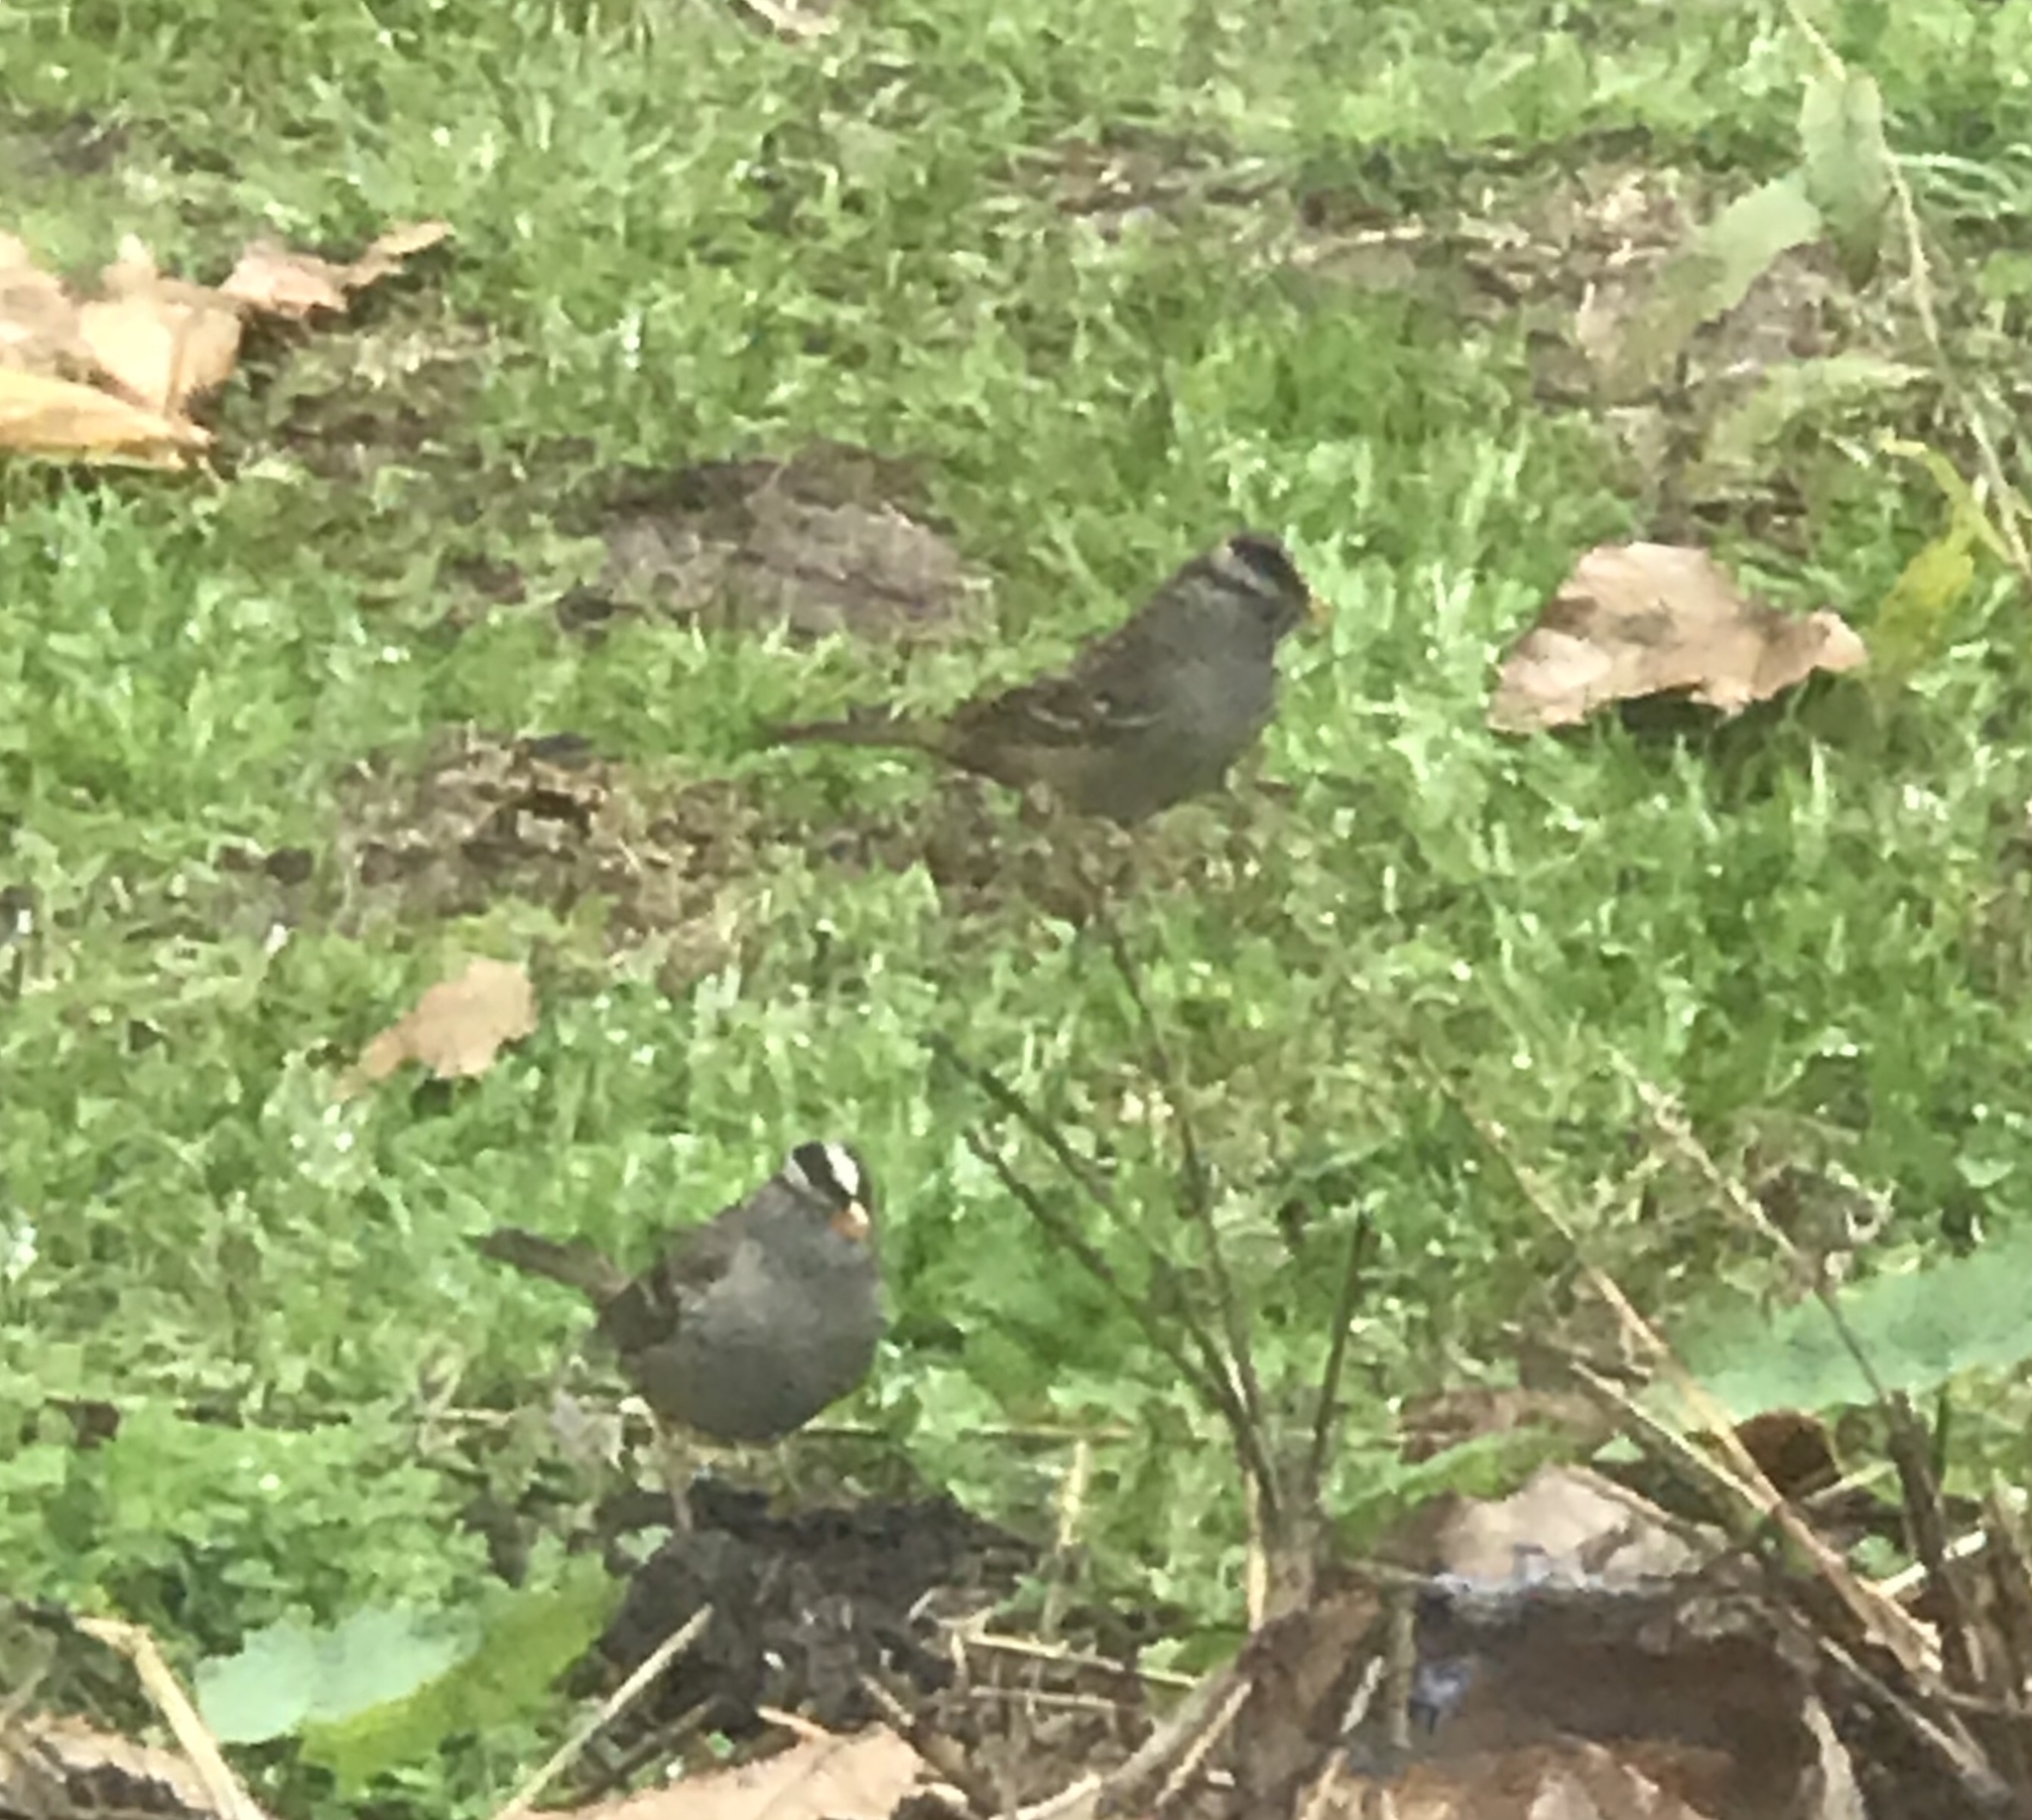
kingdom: Animalia
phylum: Chordata
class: Aves
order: Passeriformes
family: Passerellidae
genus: Zonotrichia
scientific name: Zonotrichia leucophrys
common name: White-crowned sparrow
